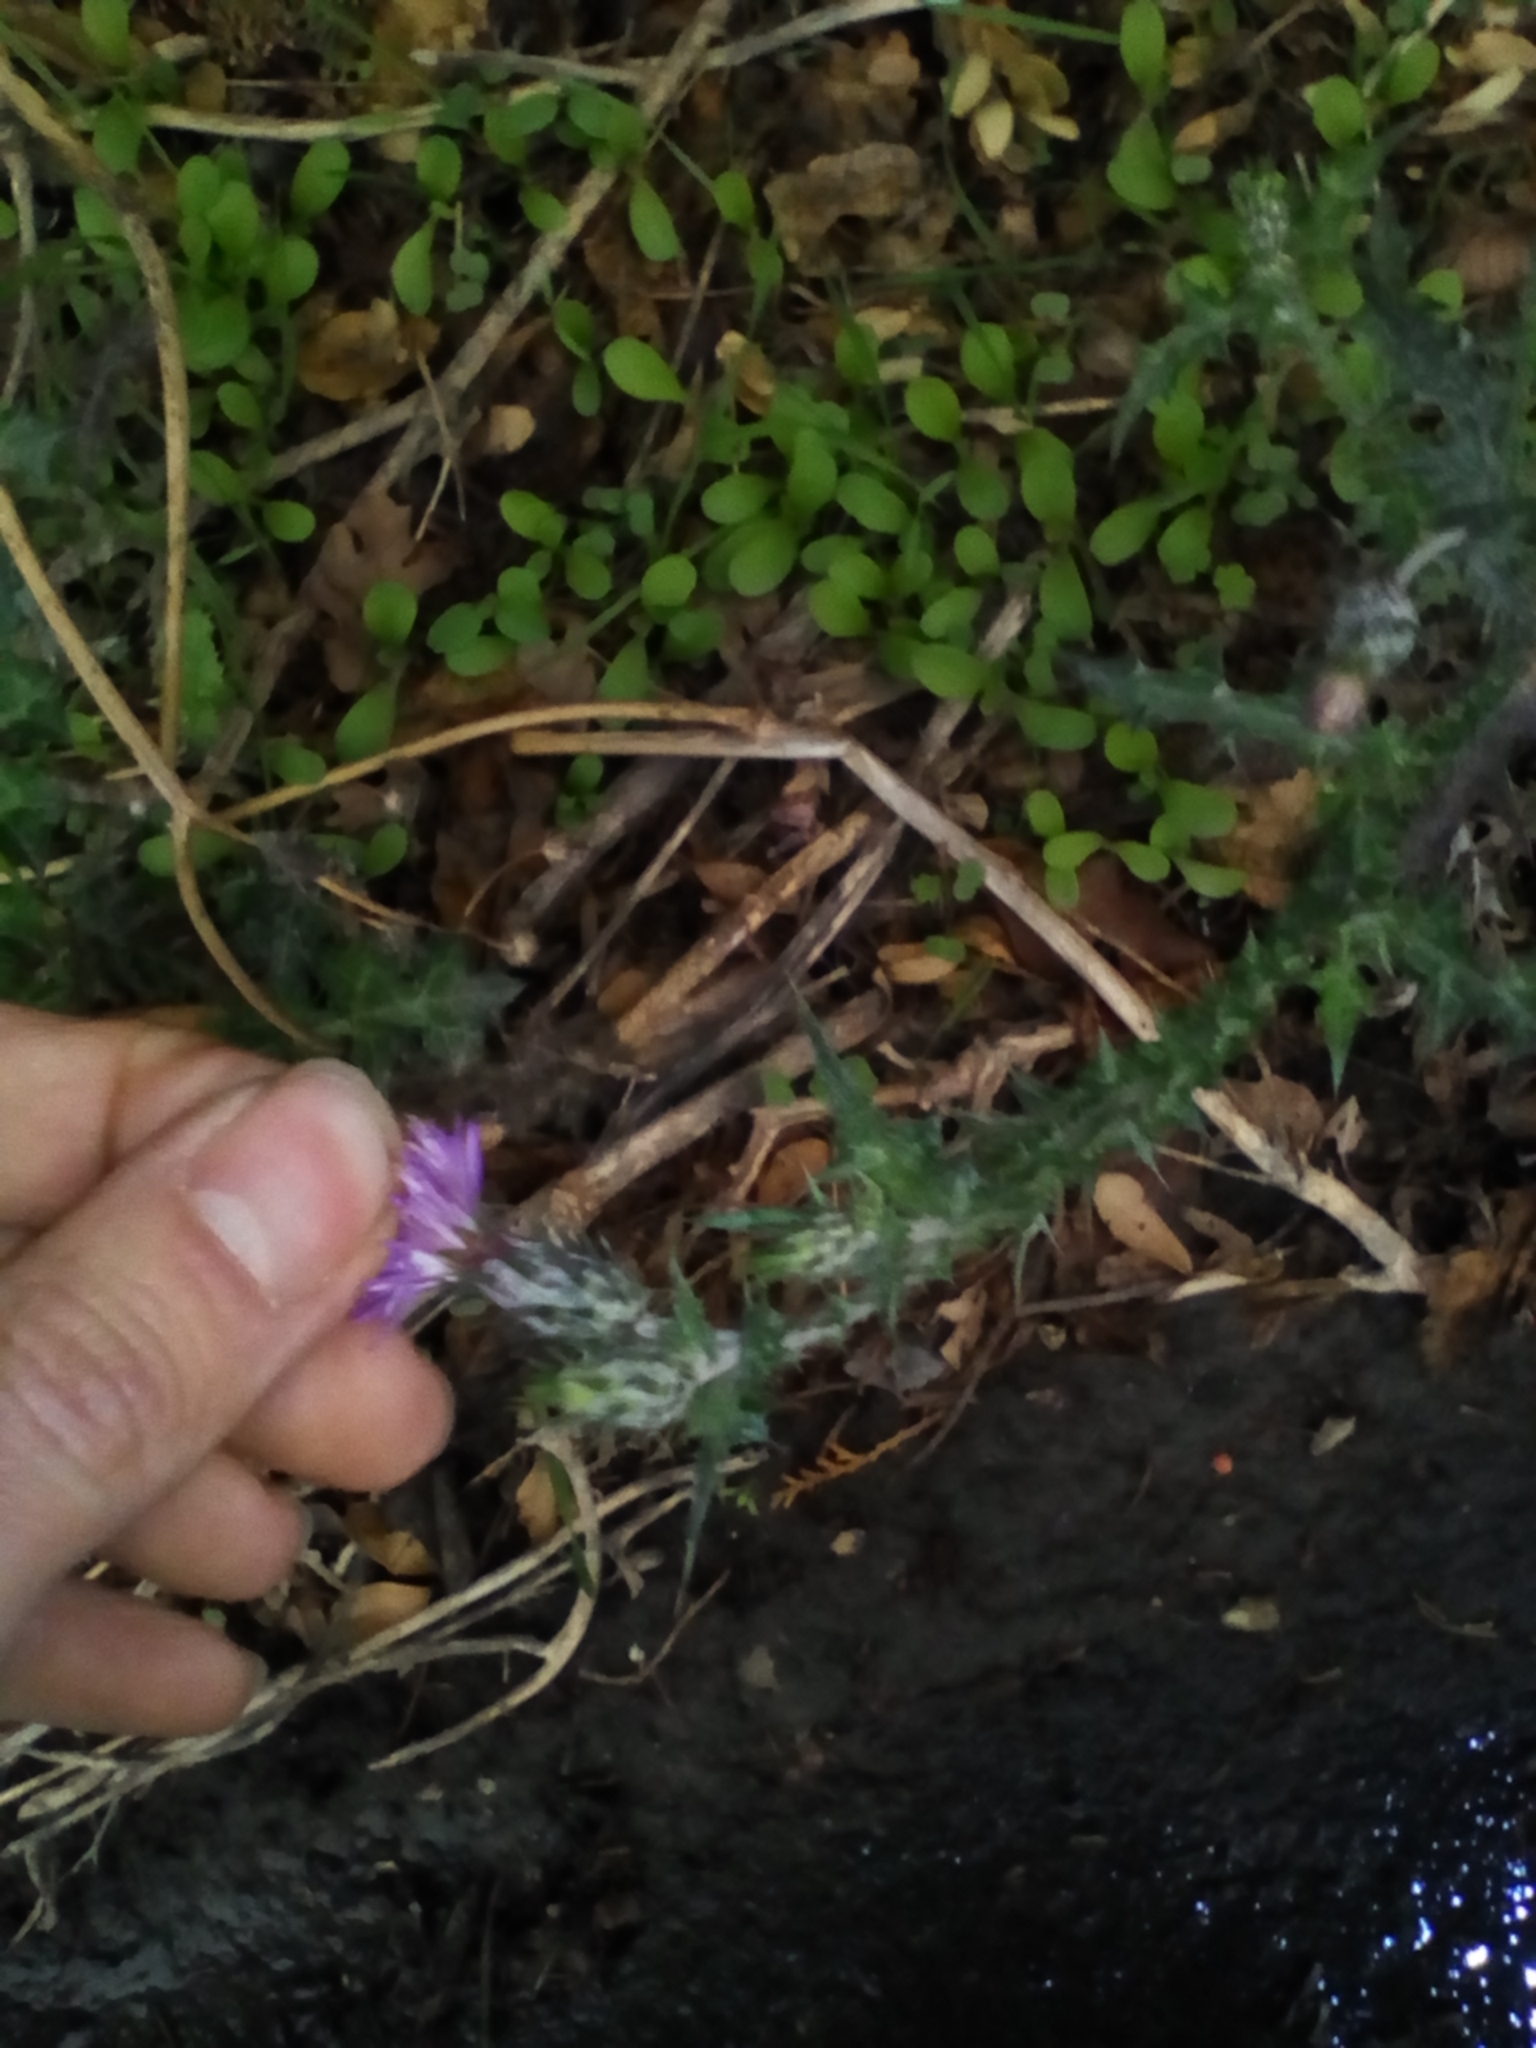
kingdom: Plantae
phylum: Tracheophyta
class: Magnoliopsida
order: Asterales
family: Asteraceae
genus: Carduus
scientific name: Carduus arabicus
